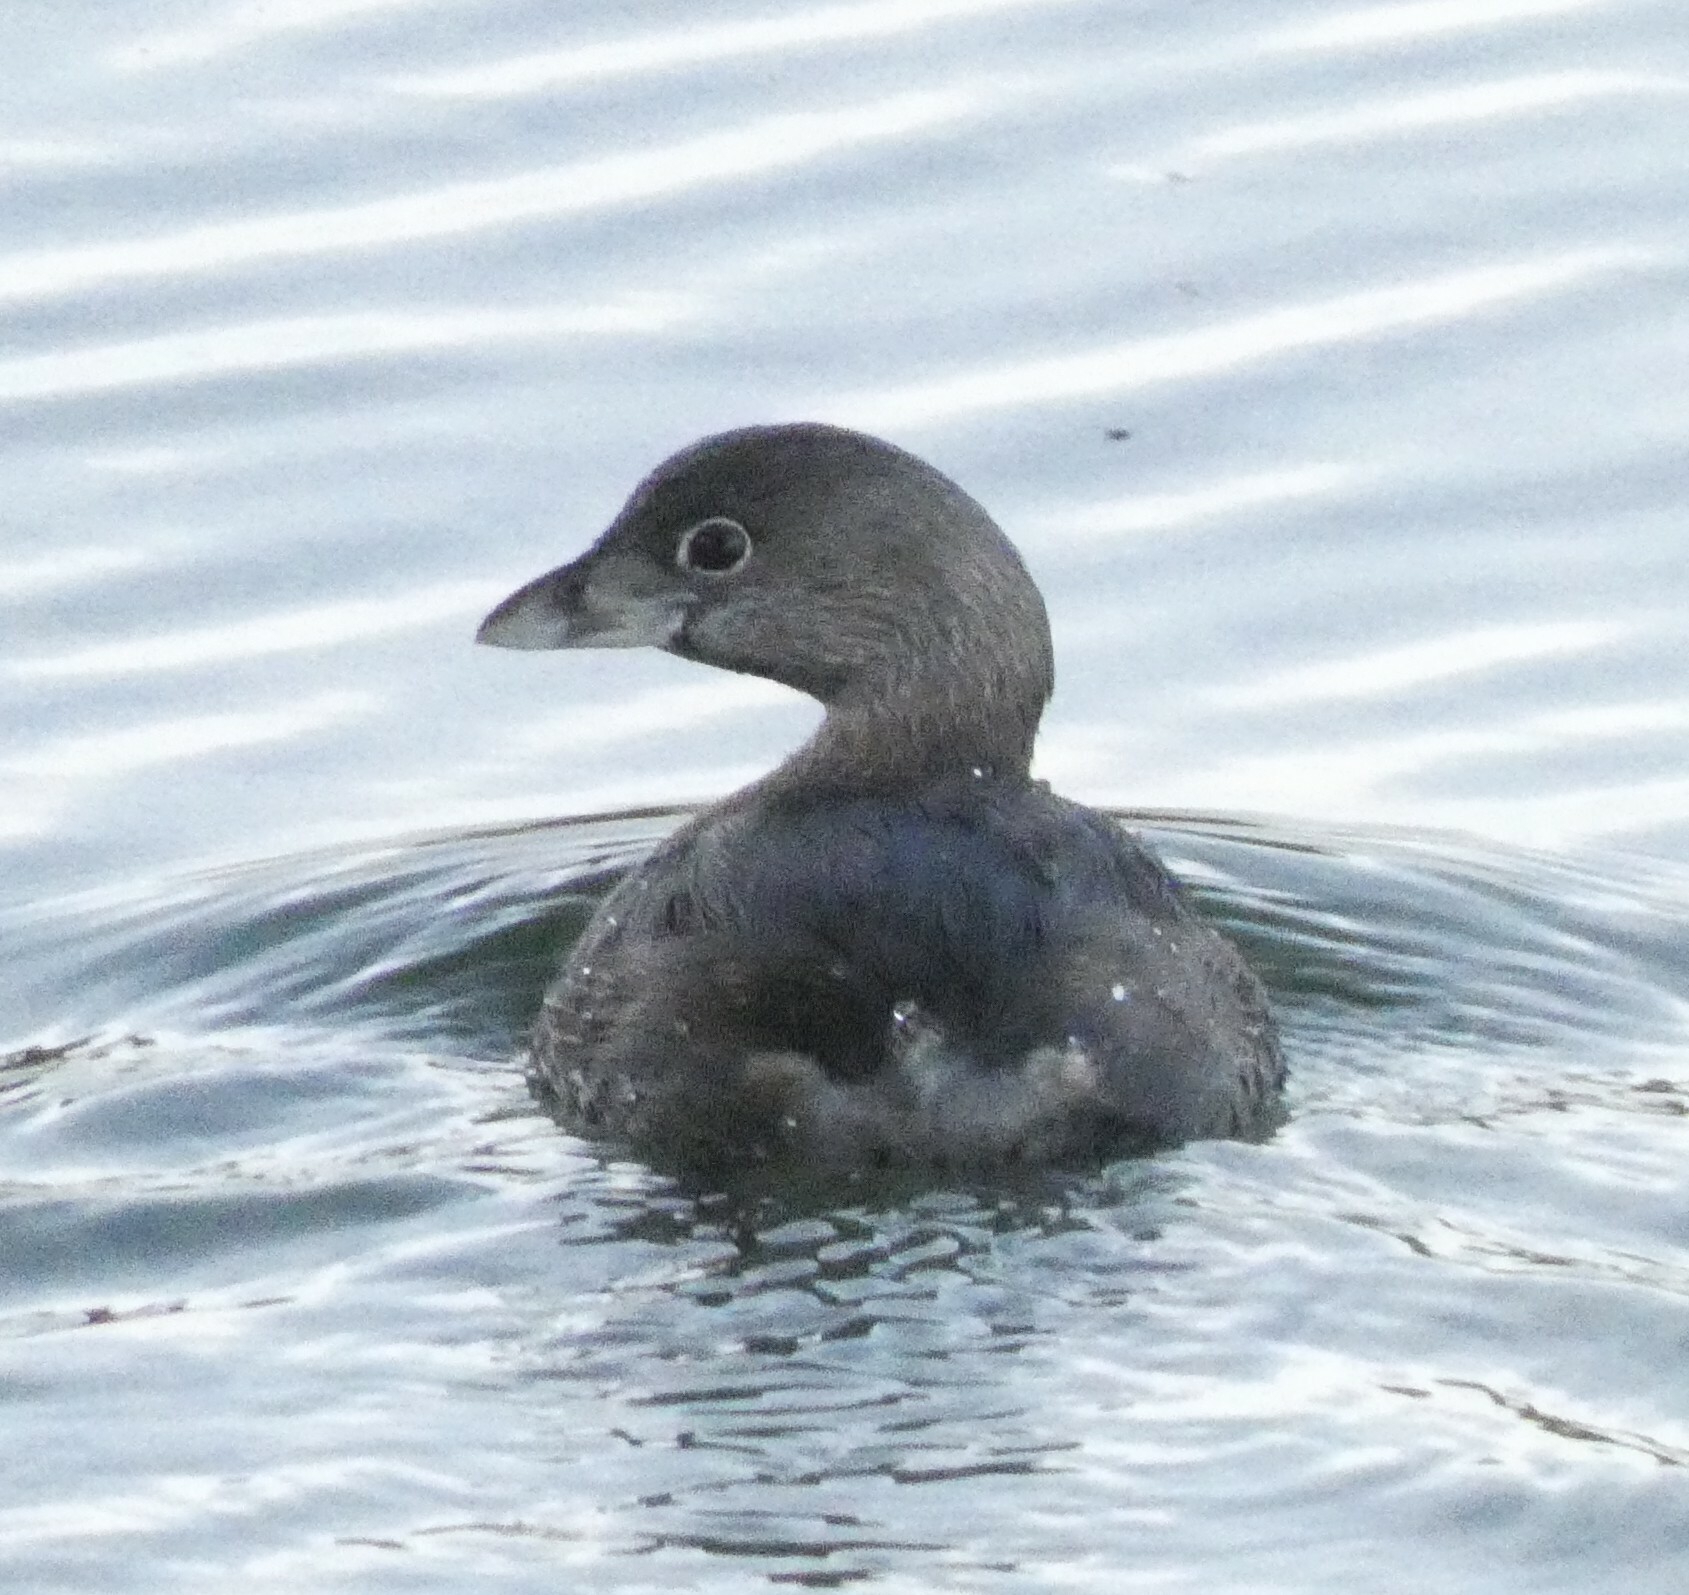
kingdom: Animalia
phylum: Chordata
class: Aves
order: Podicipediformes
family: Podicipedidae
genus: Podilymbus
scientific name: Podilymbus podiceps
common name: Pied-billed grebe
